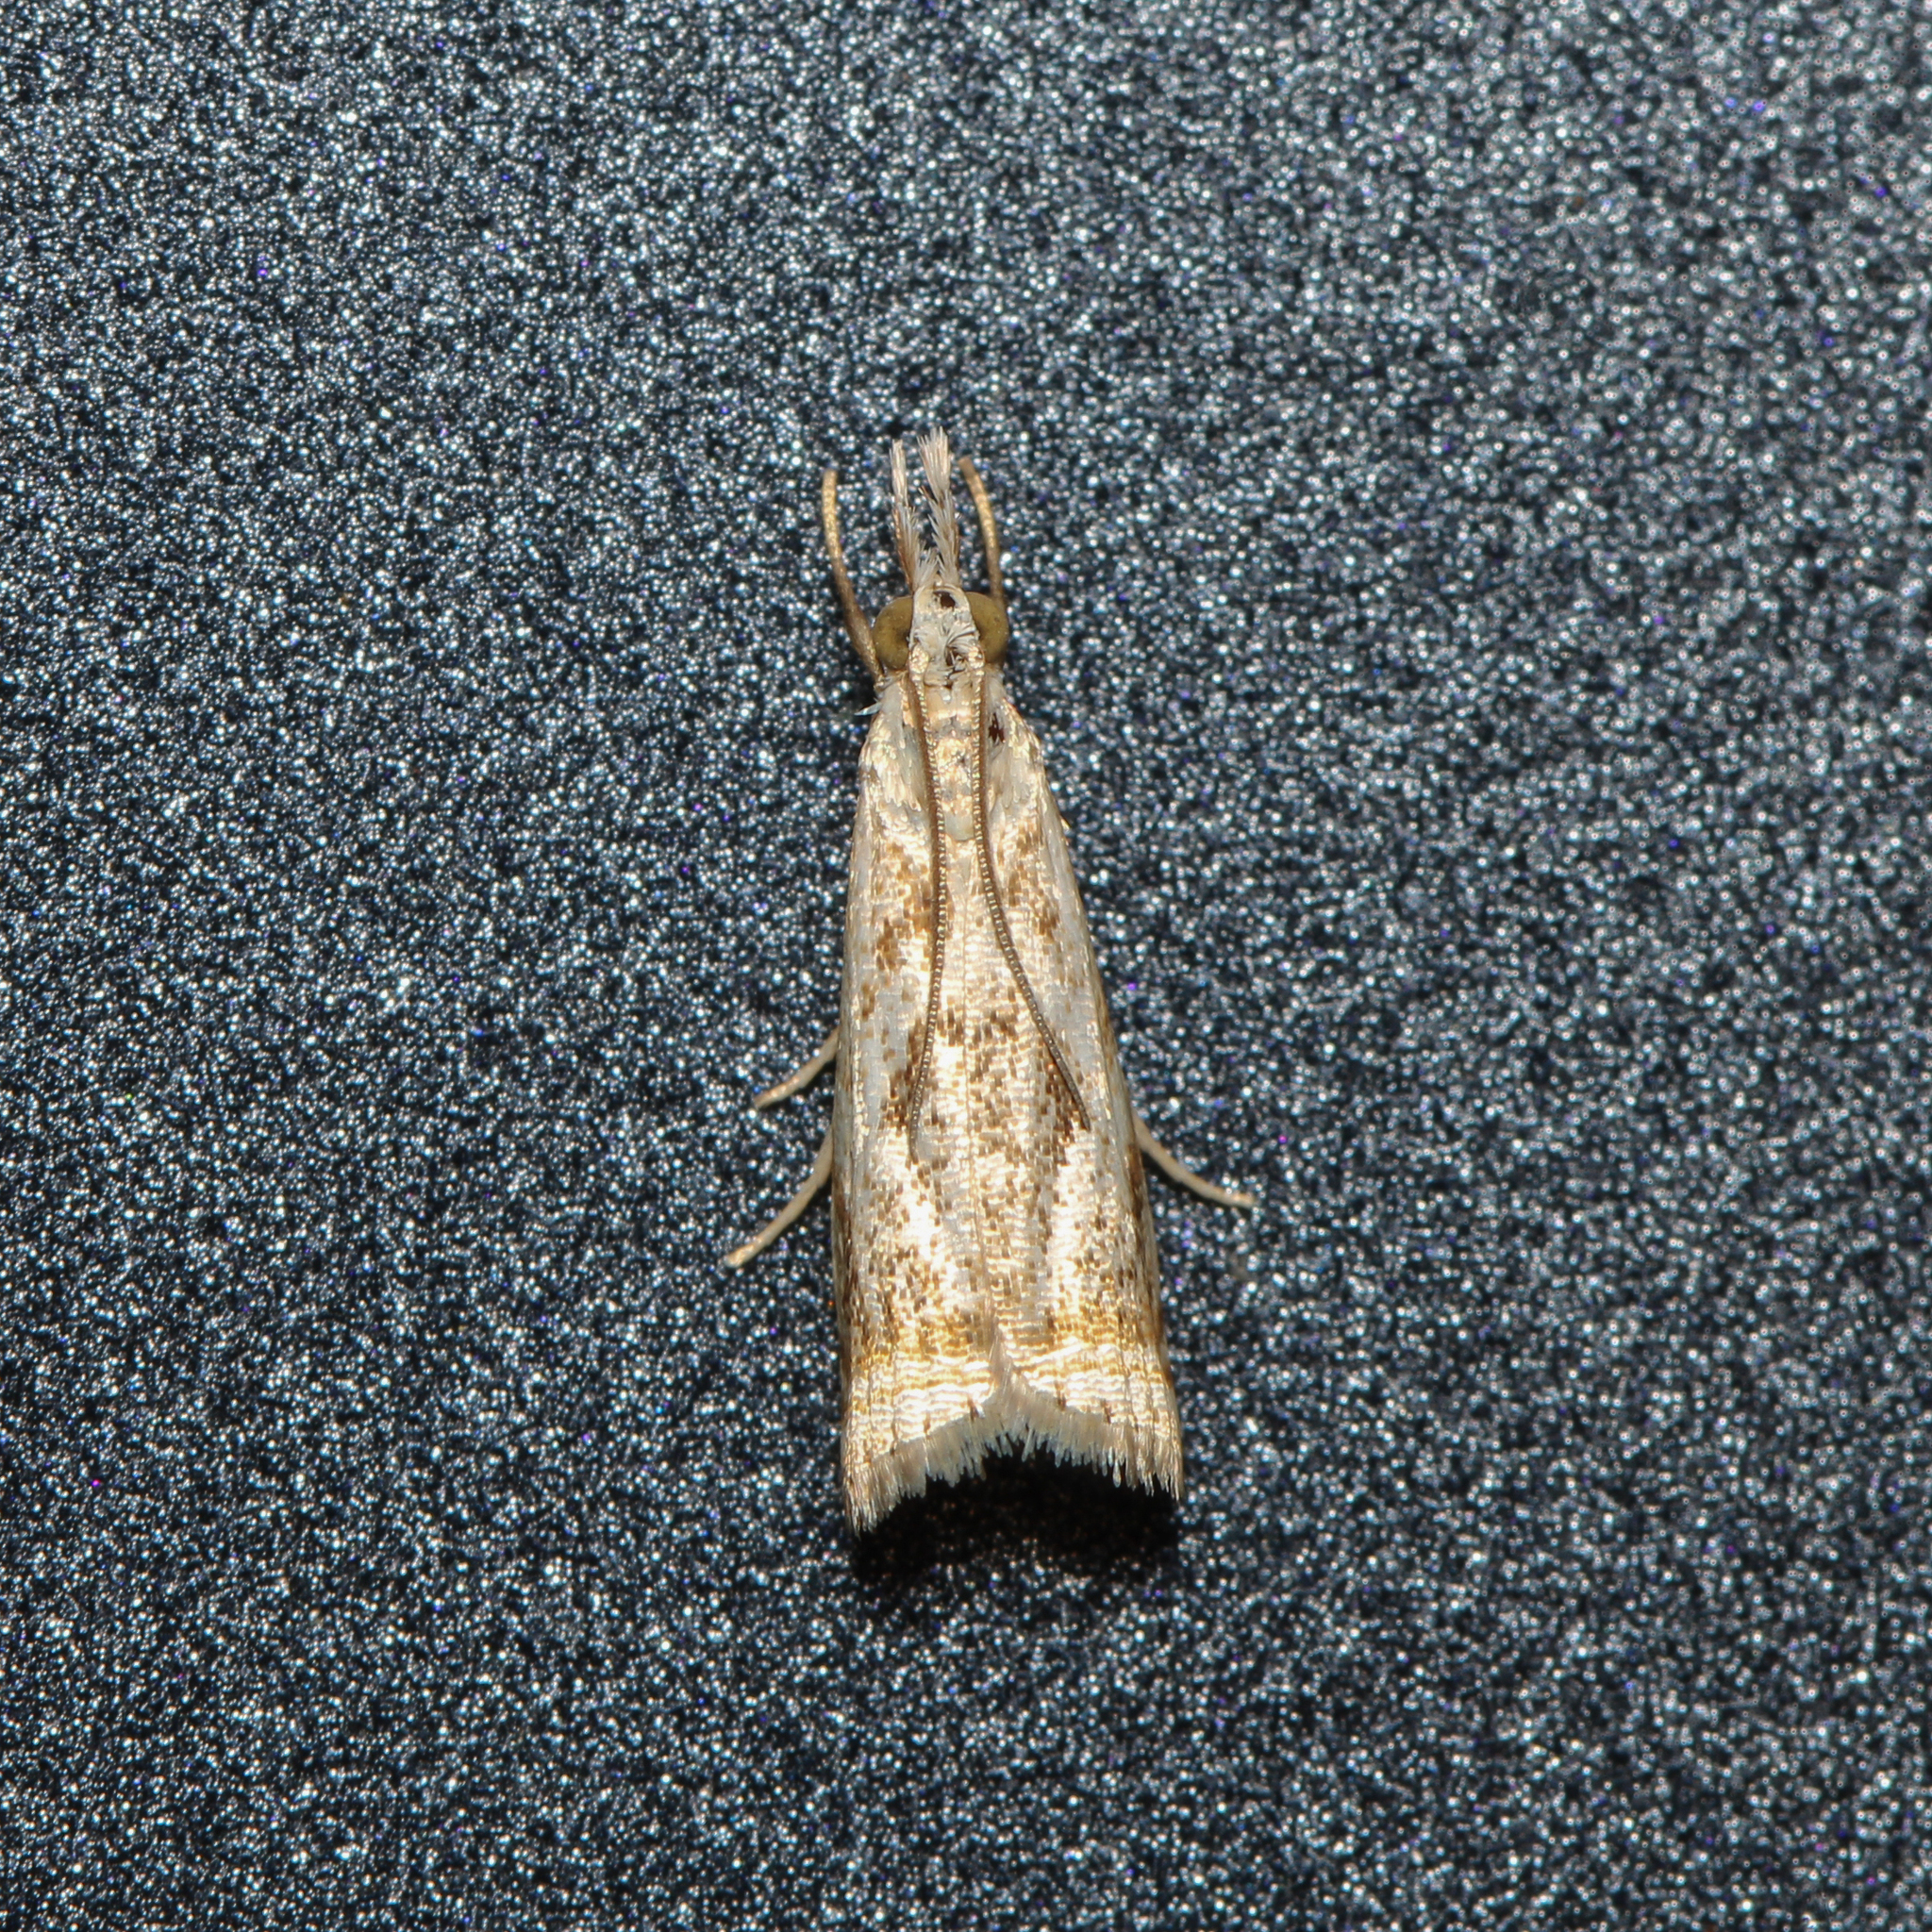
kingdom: Animalia
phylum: Arthropoda
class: Insecta
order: Lepidoptera
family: Crambidae
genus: Microcrambus
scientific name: Microcrambus elegans
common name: Elegant grass-veneer
